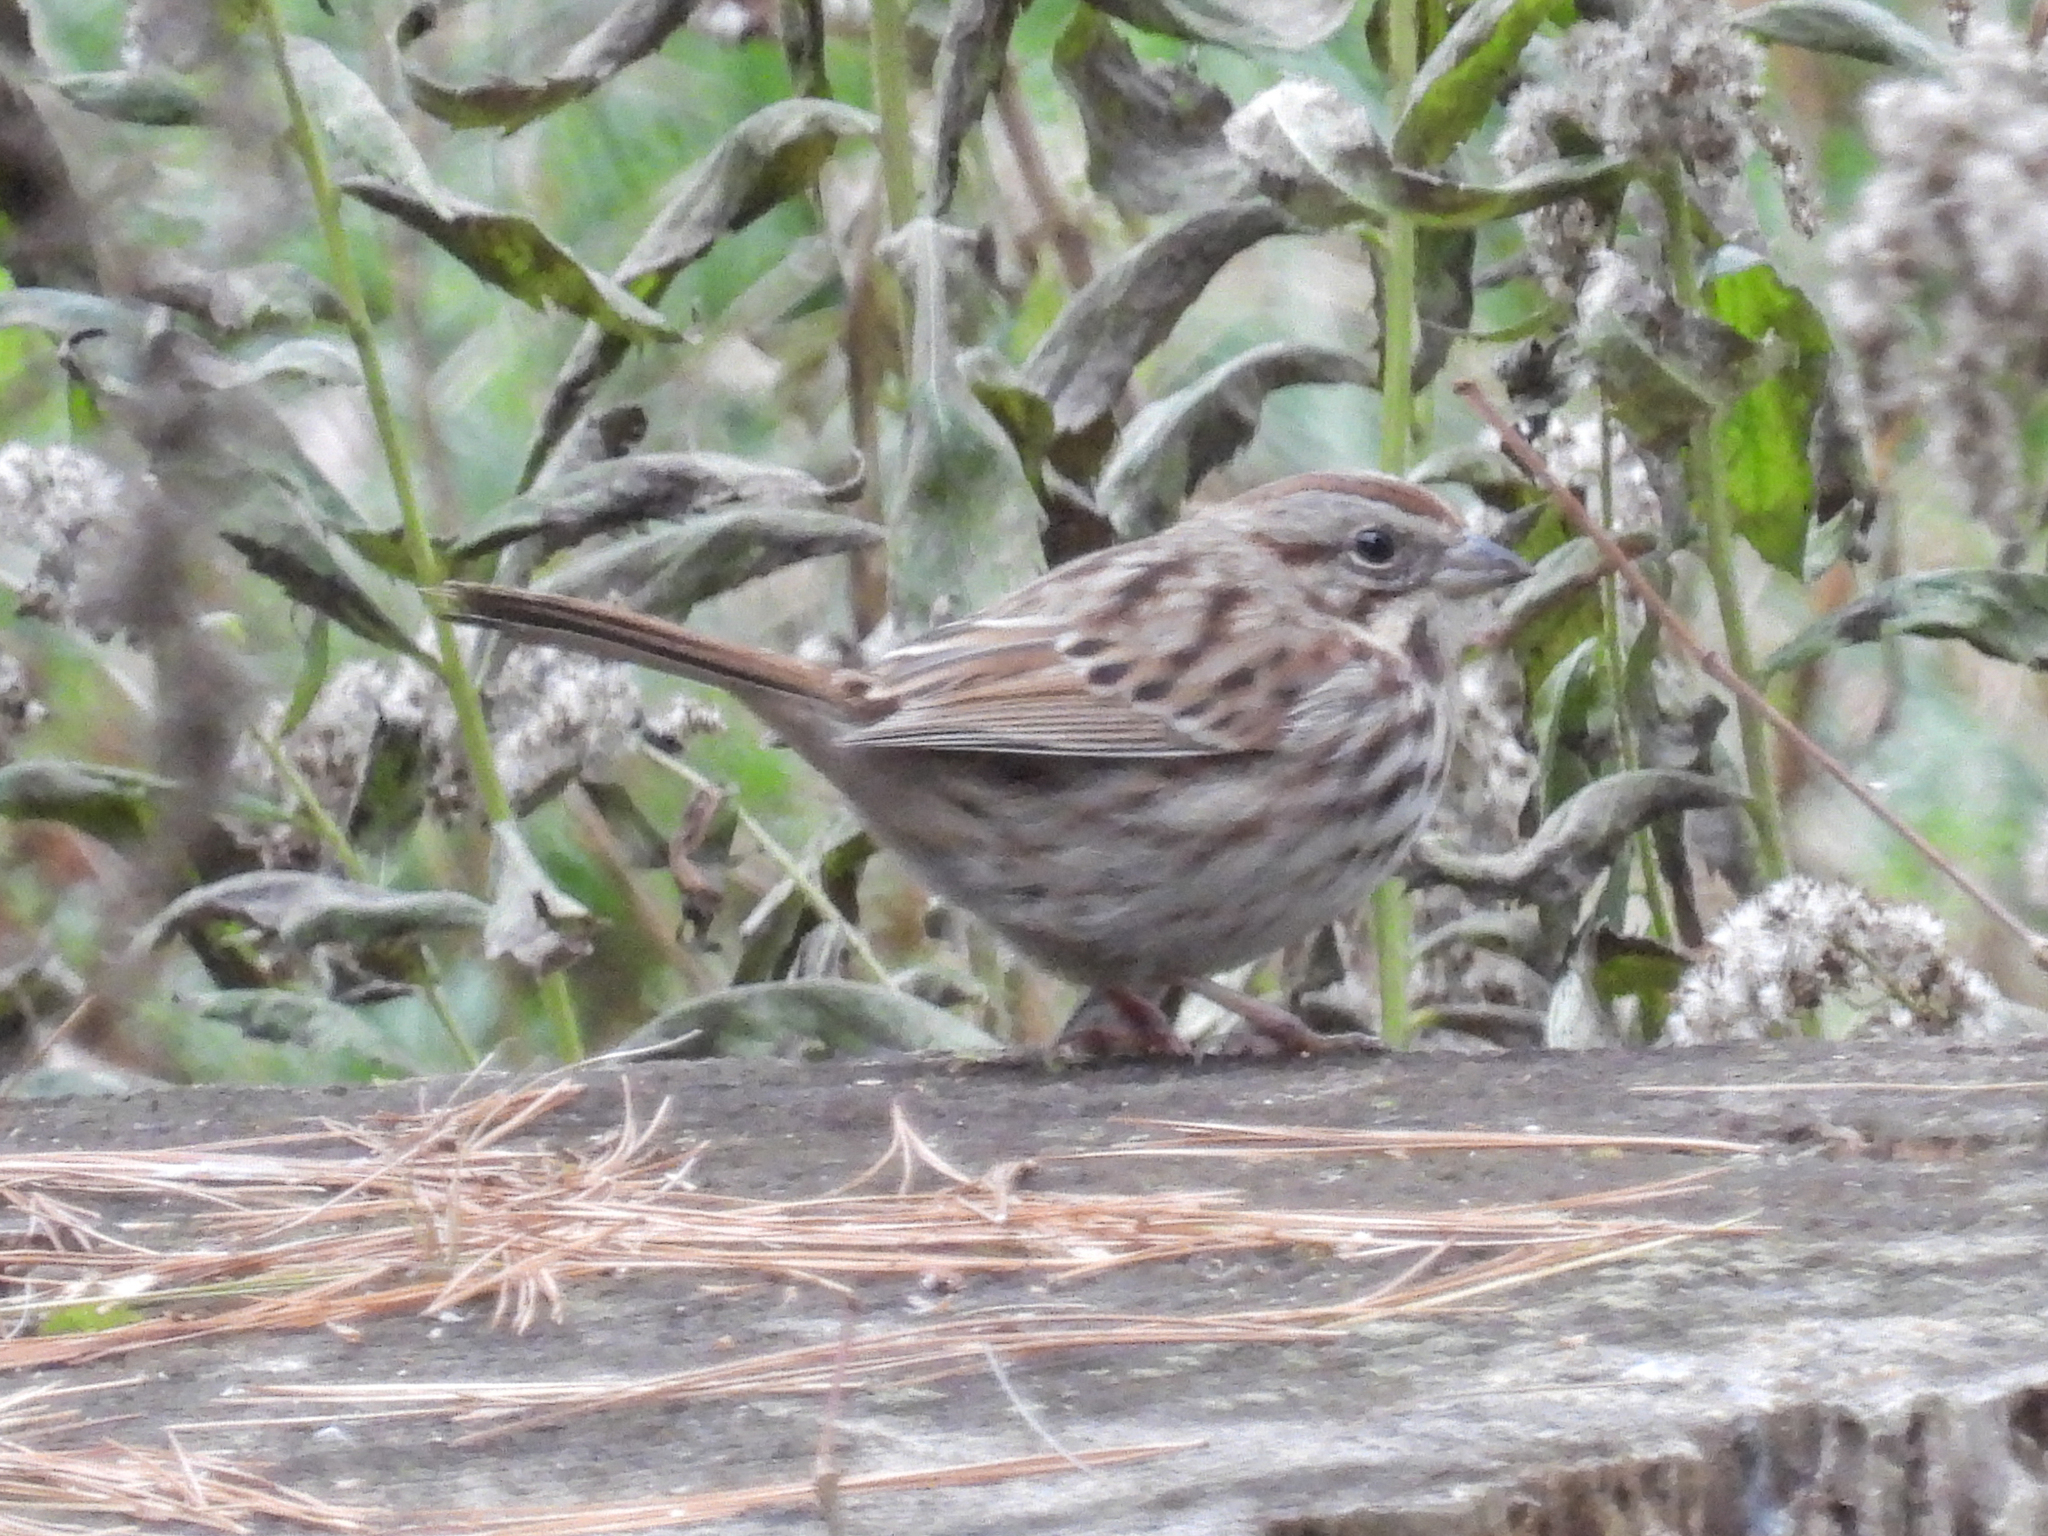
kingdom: Animalia
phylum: Chordata
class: Aves
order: Passeriformes
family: Passerellidae
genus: Melospiza
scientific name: Melospiza melodia
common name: Song sparrow
